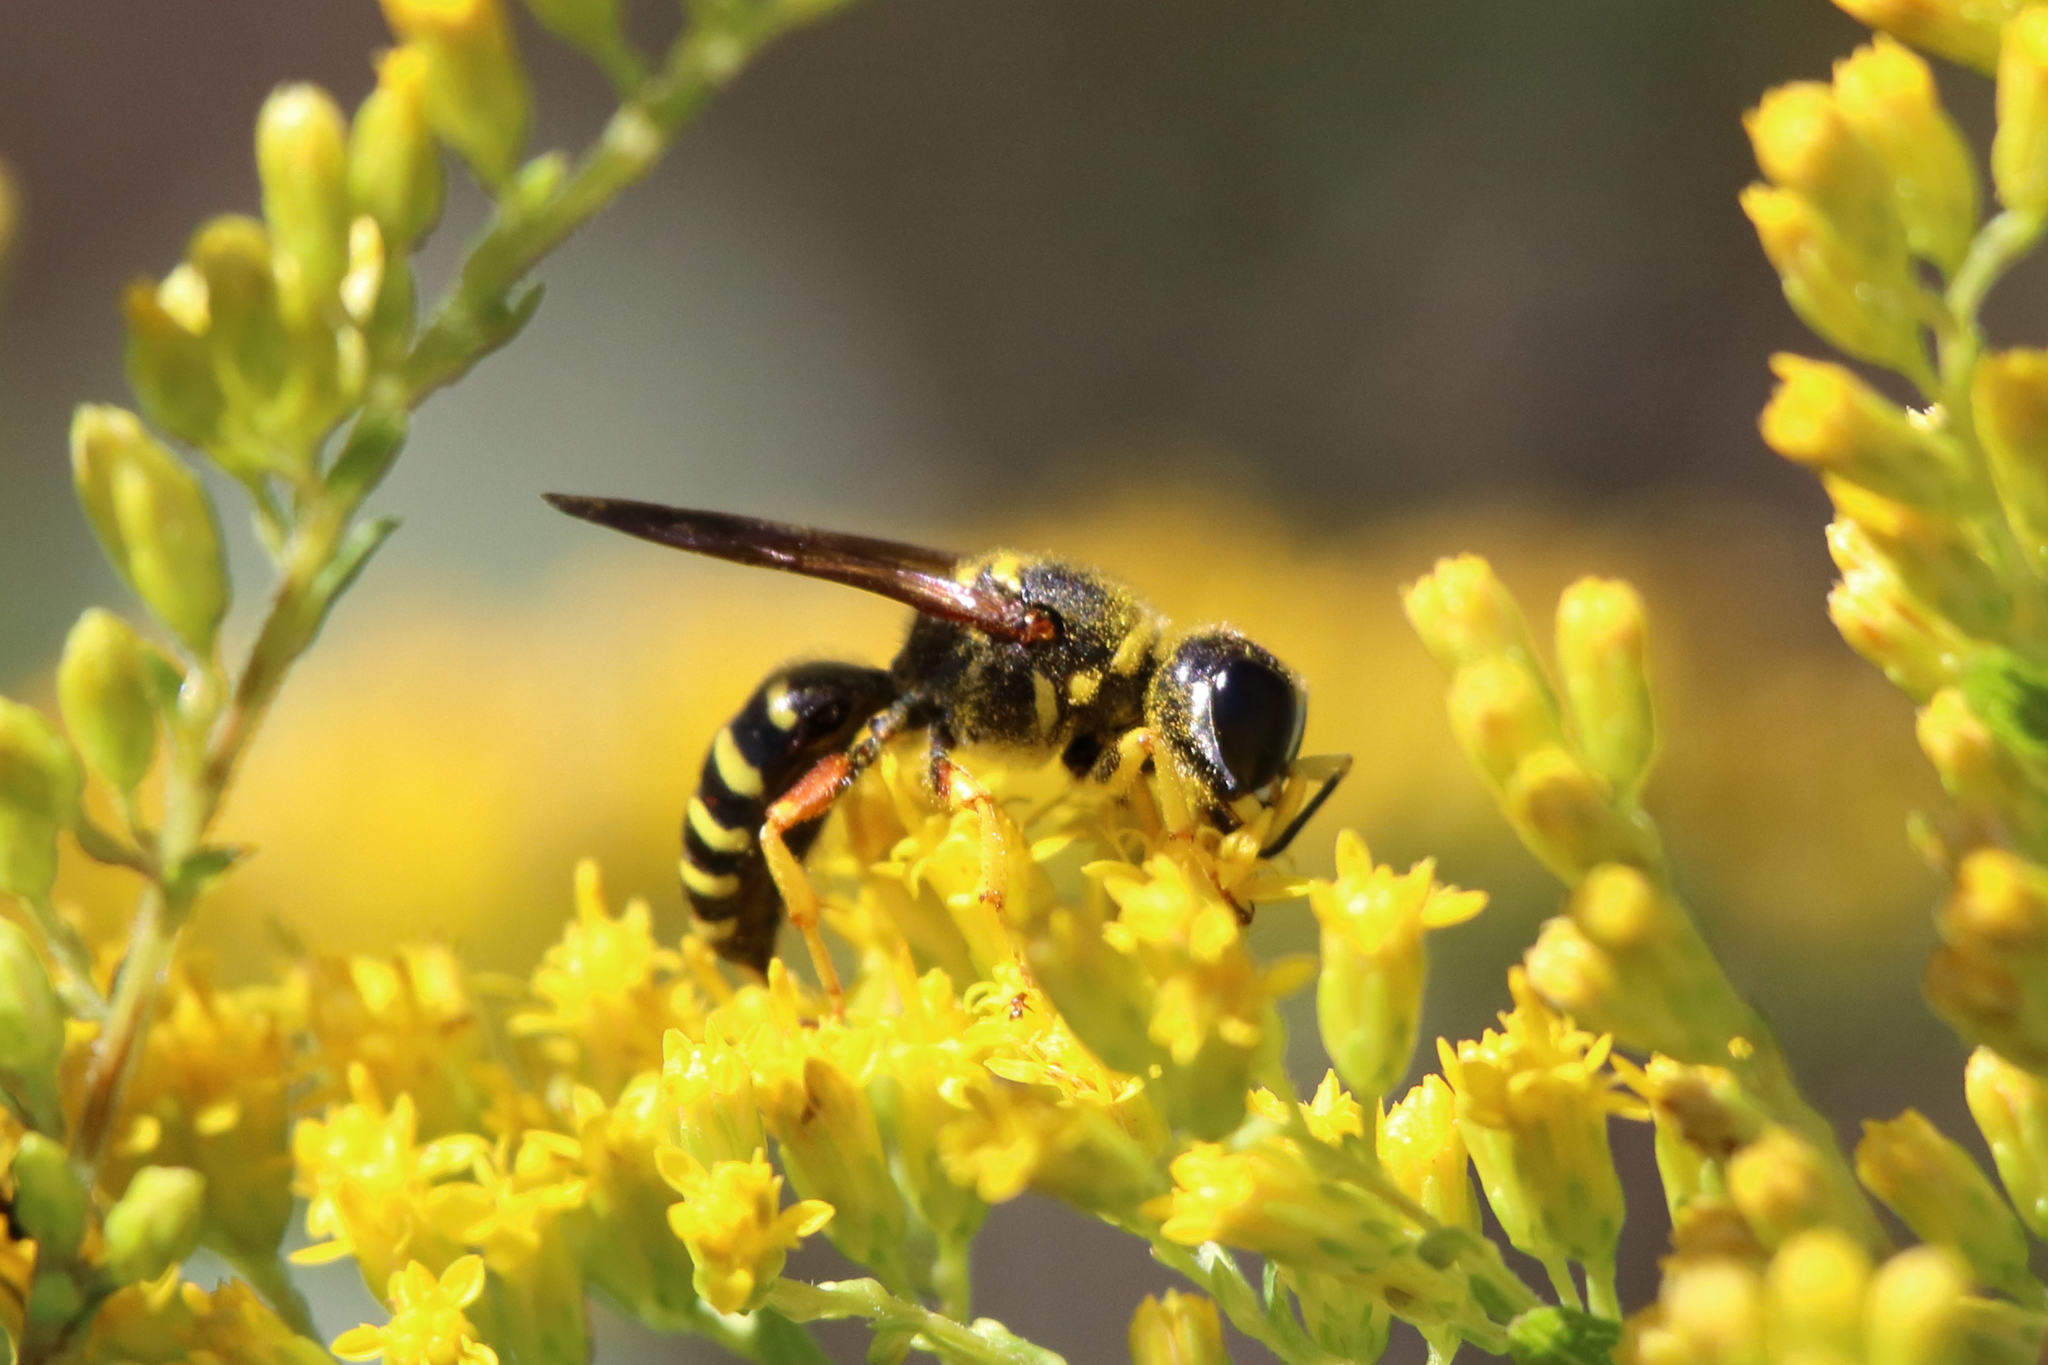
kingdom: Animalia
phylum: Arthropoda
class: Insecta
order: Hymenoptera
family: Crabronidae
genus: Ectemnius
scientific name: Ectemnius decemmaculatus
